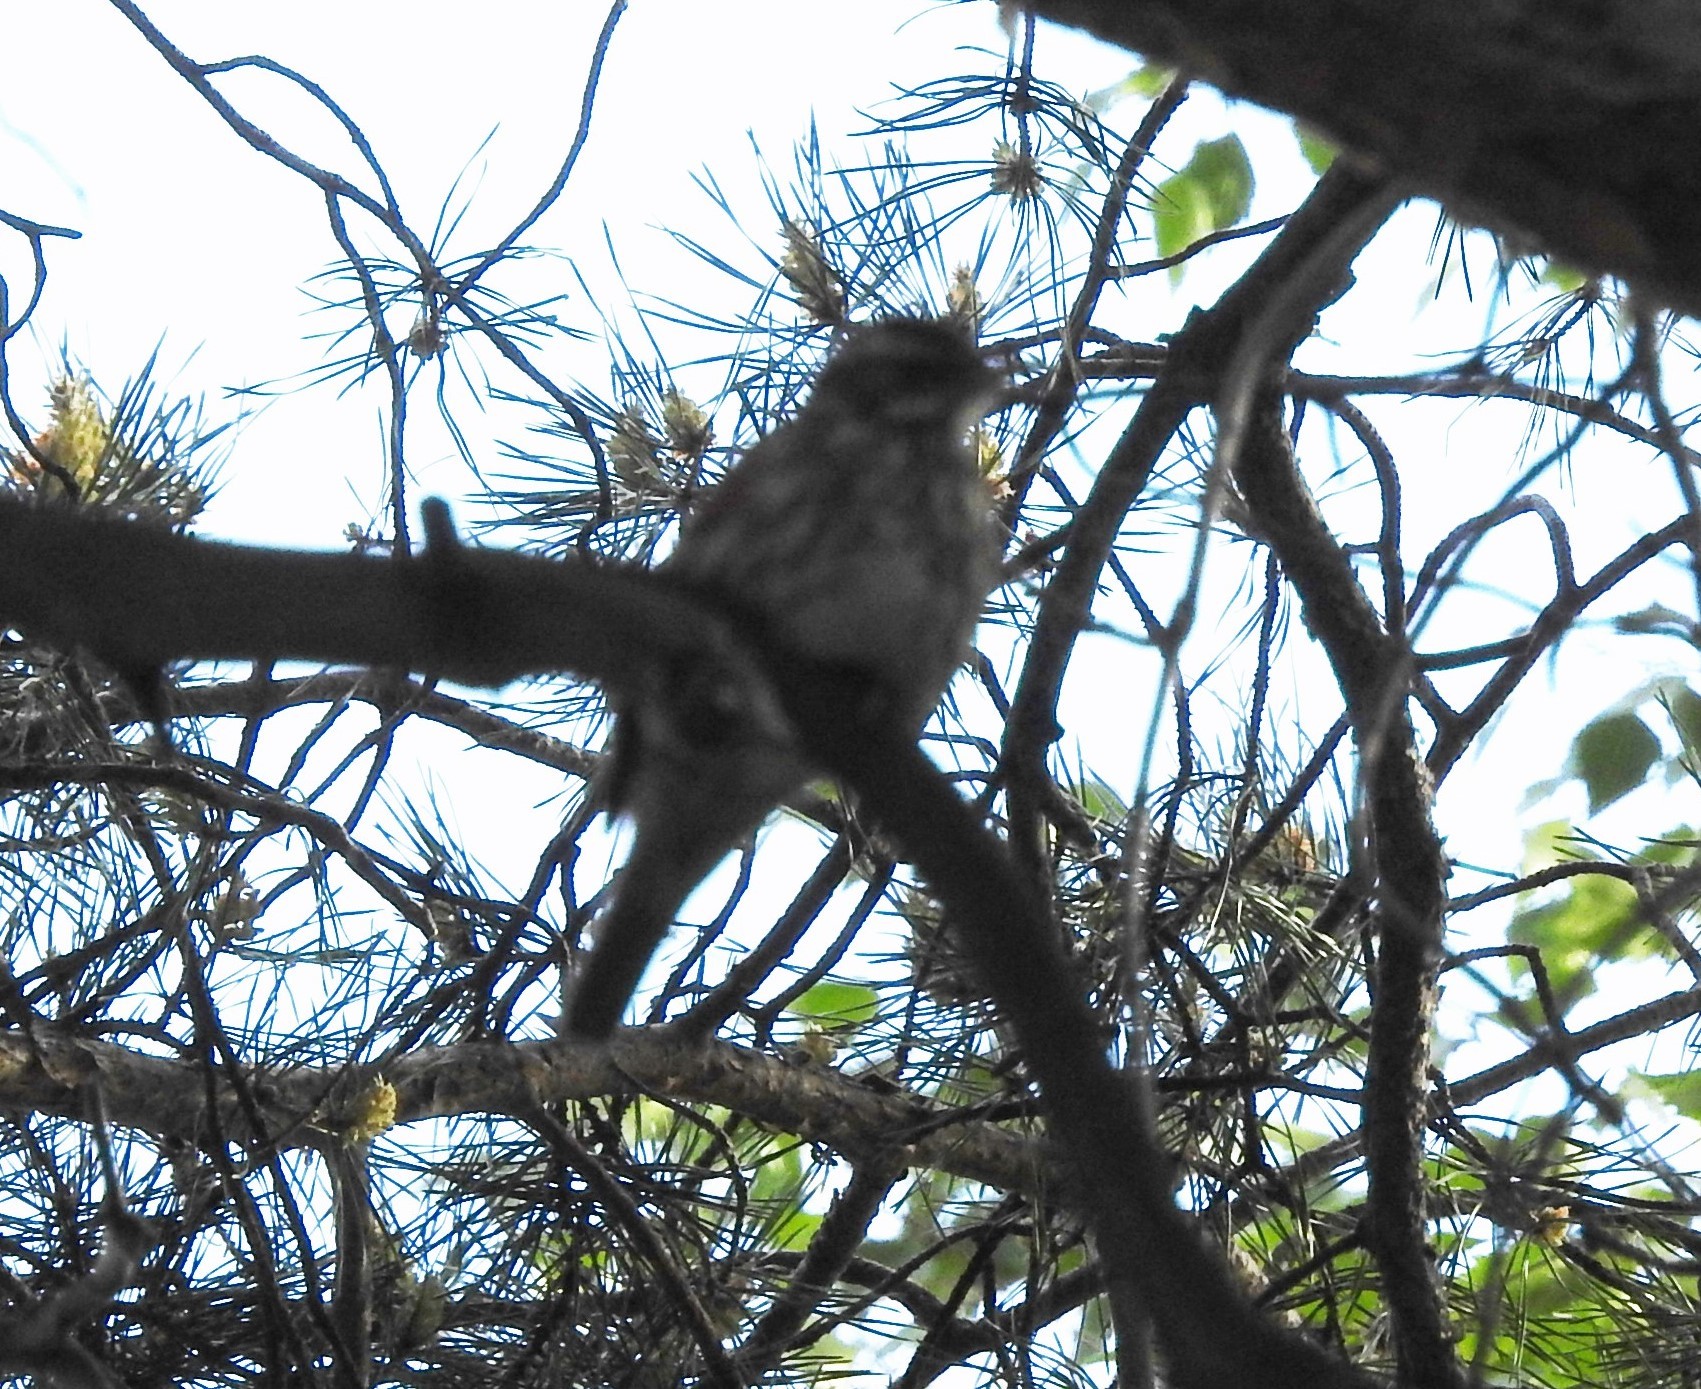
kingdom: Animalia
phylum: Chordata
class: Aves
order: Passeriformes
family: Turdidae
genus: Turdus
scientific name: Turdus iliacus
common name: Redwing
